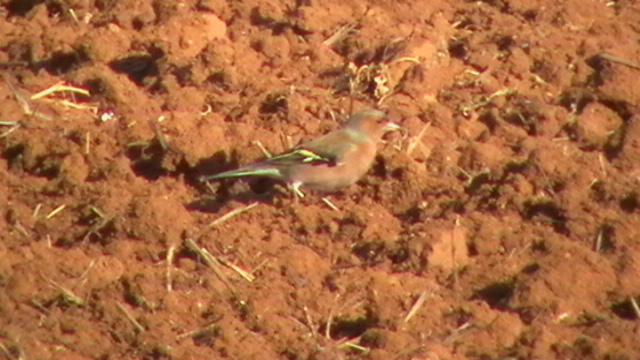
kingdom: Animalia
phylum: Chordata
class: Aves
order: Passeriformes
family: Fringillidae
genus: Fringilla
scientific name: Fringilla coelebs
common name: Common chaffinch
